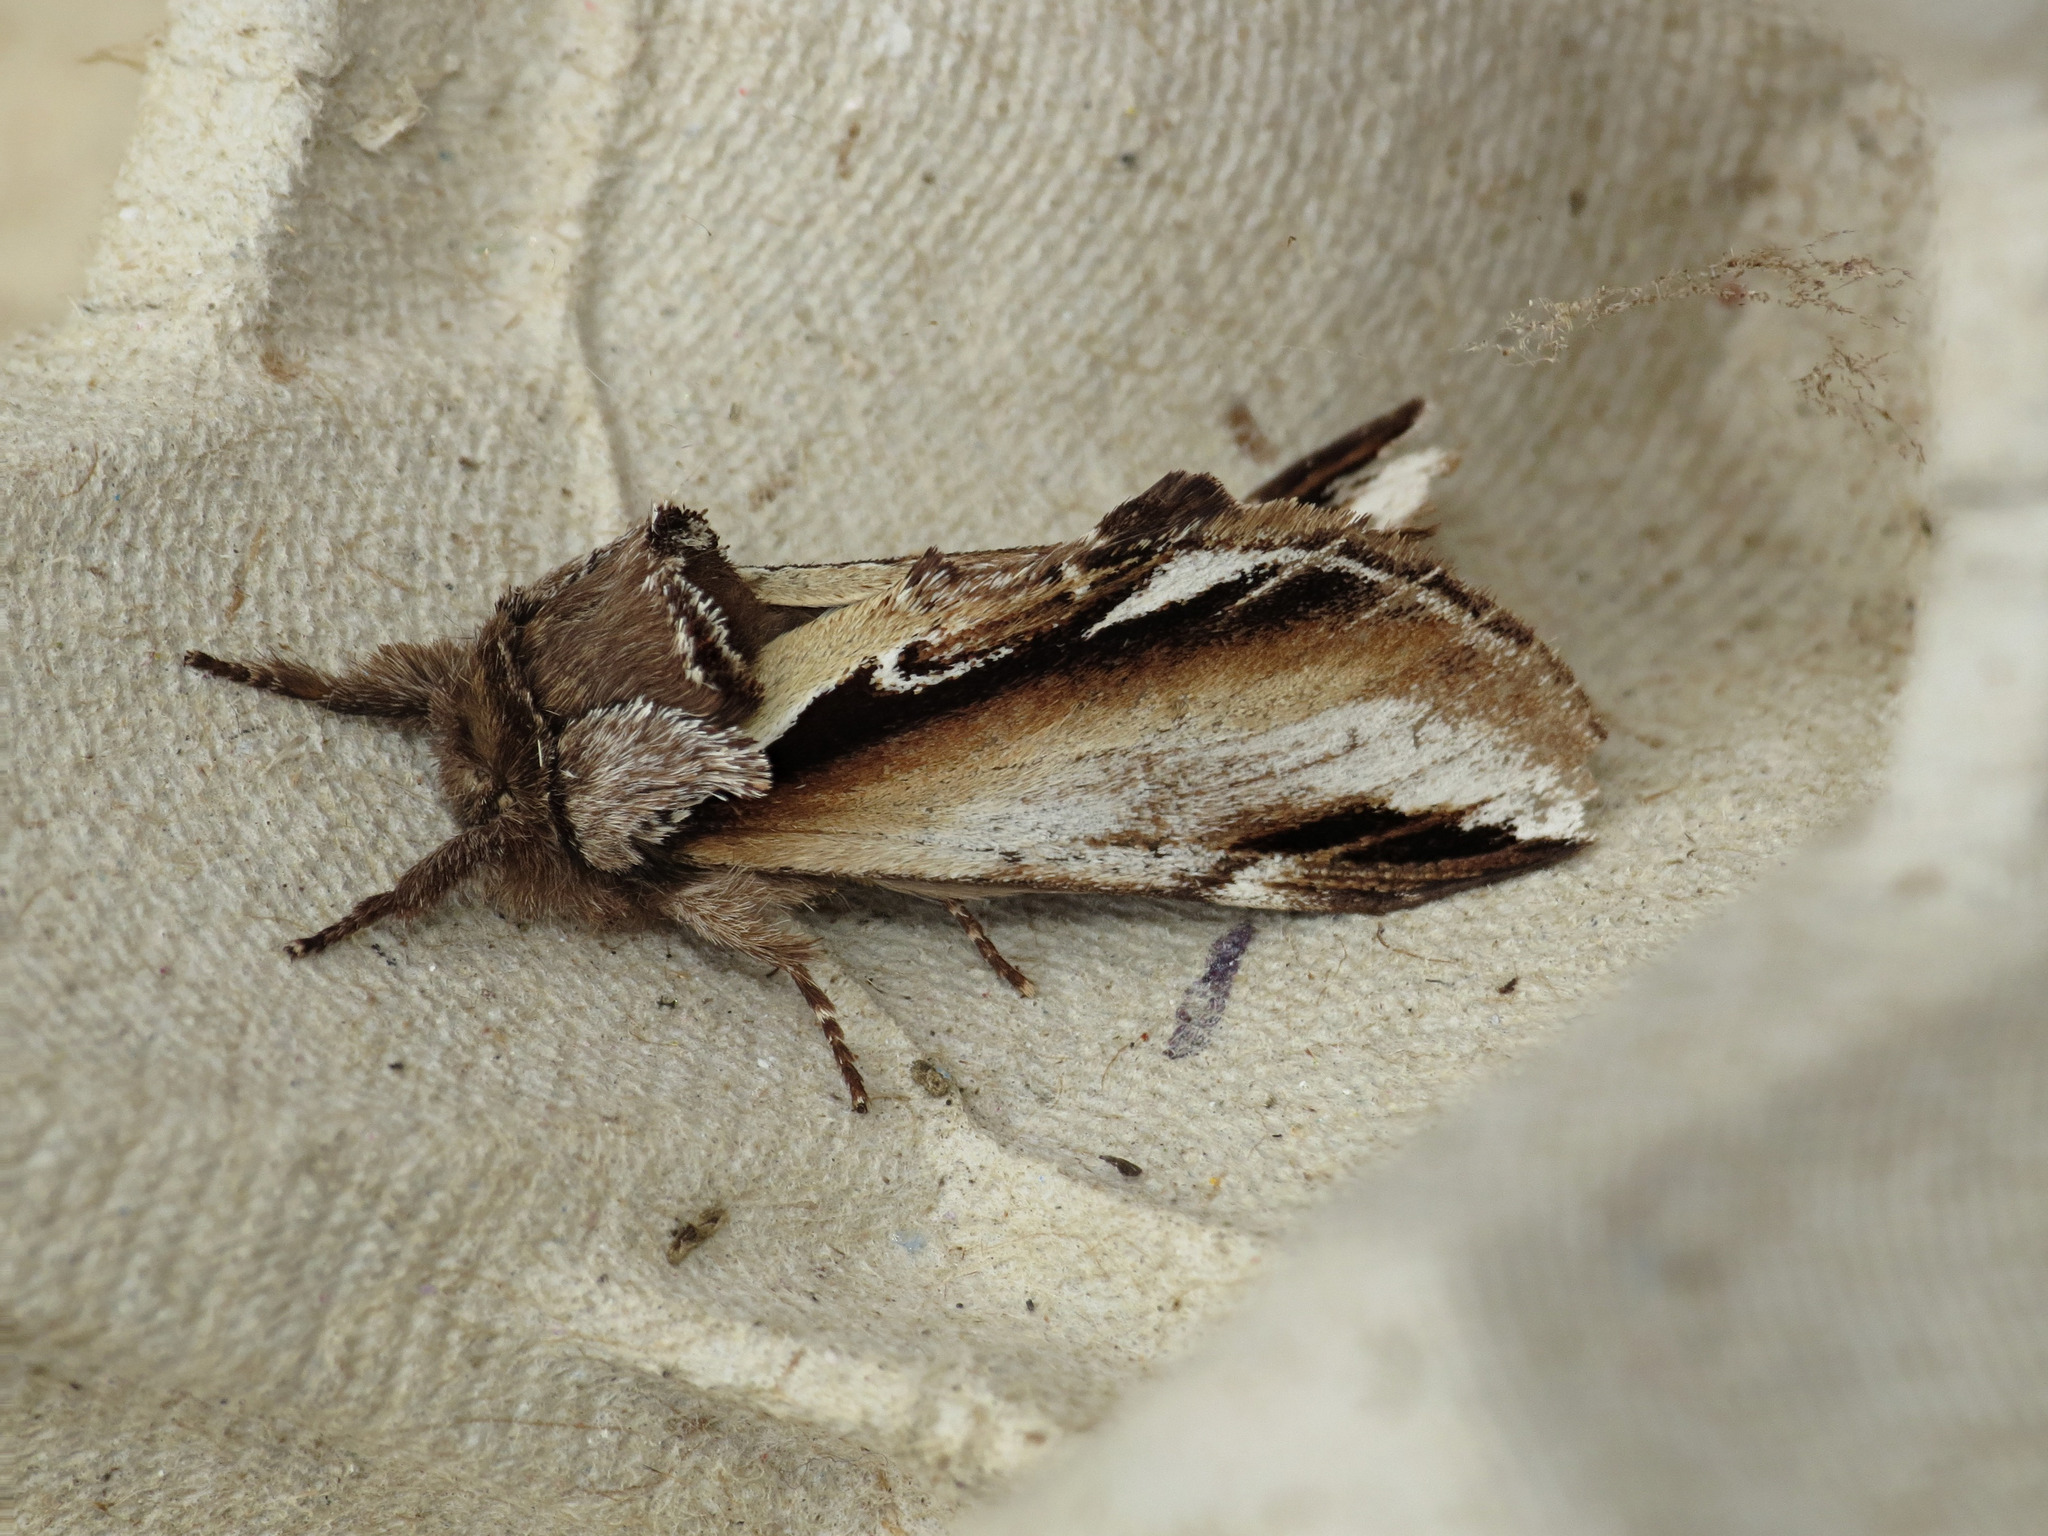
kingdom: Animalia
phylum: Arthropoda
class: Insecta
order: Lepidoptera
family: Notodontidae
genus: Pheosia
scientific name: Pheosia gnoma
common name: Lesser swallow prominent
